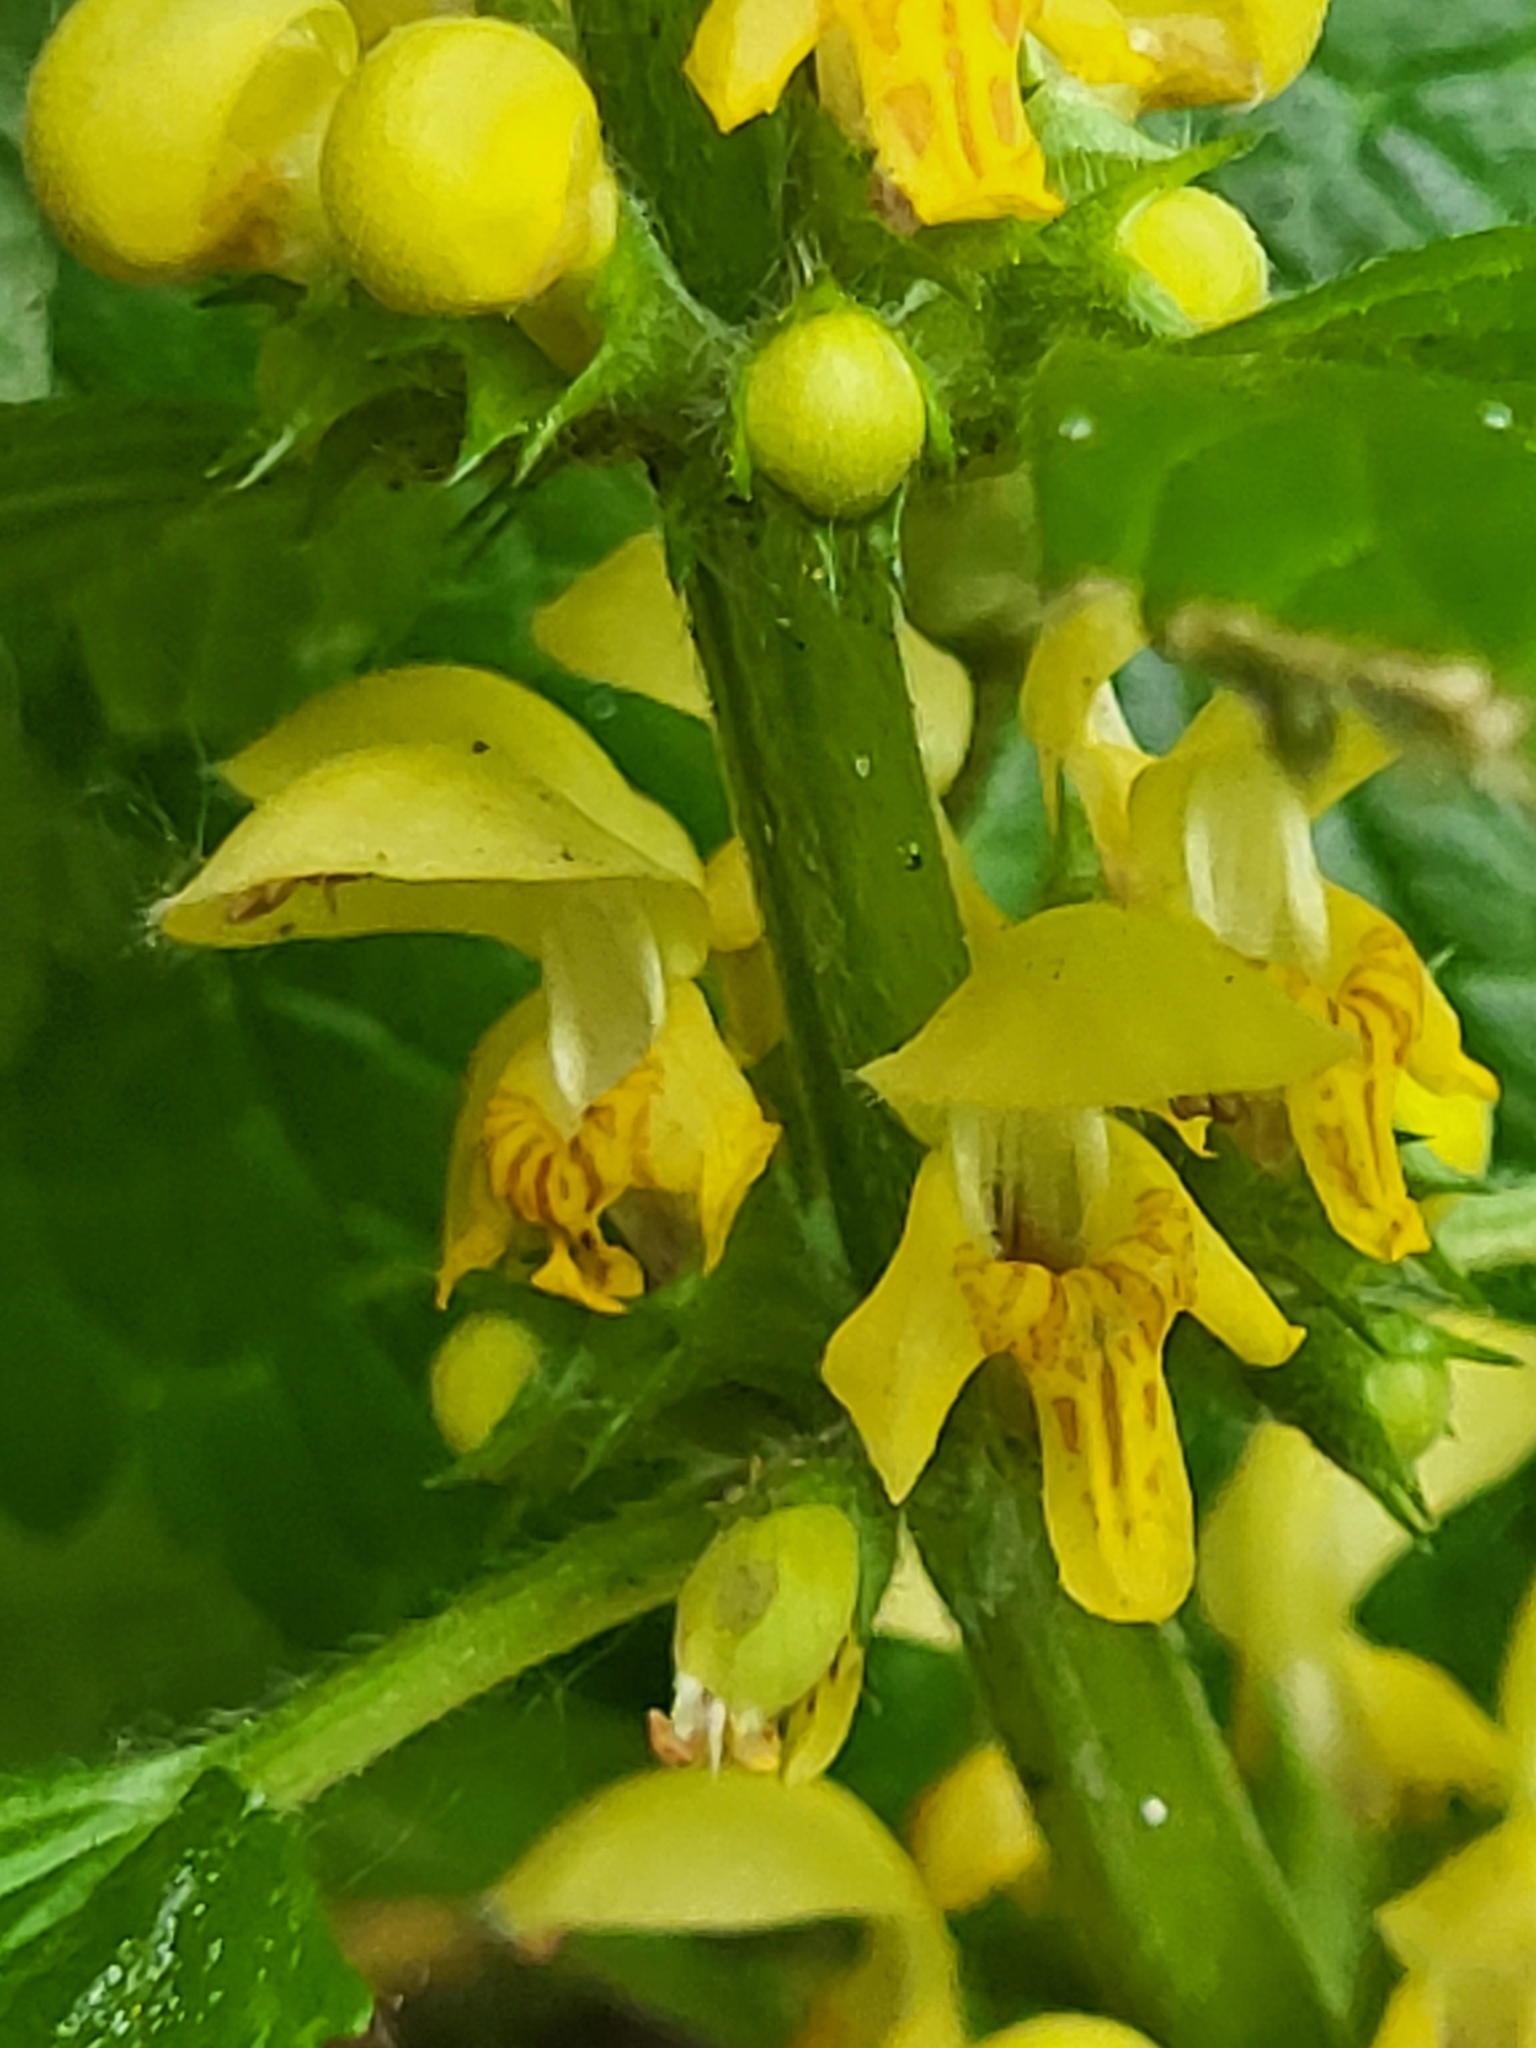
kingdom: Plantae
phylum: Tracheophyta
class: Magnoliopsida
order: Lamiales
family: Lamiaceae
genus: Lamium
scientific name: Lamium galeobdolon
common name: Yellow archangel
